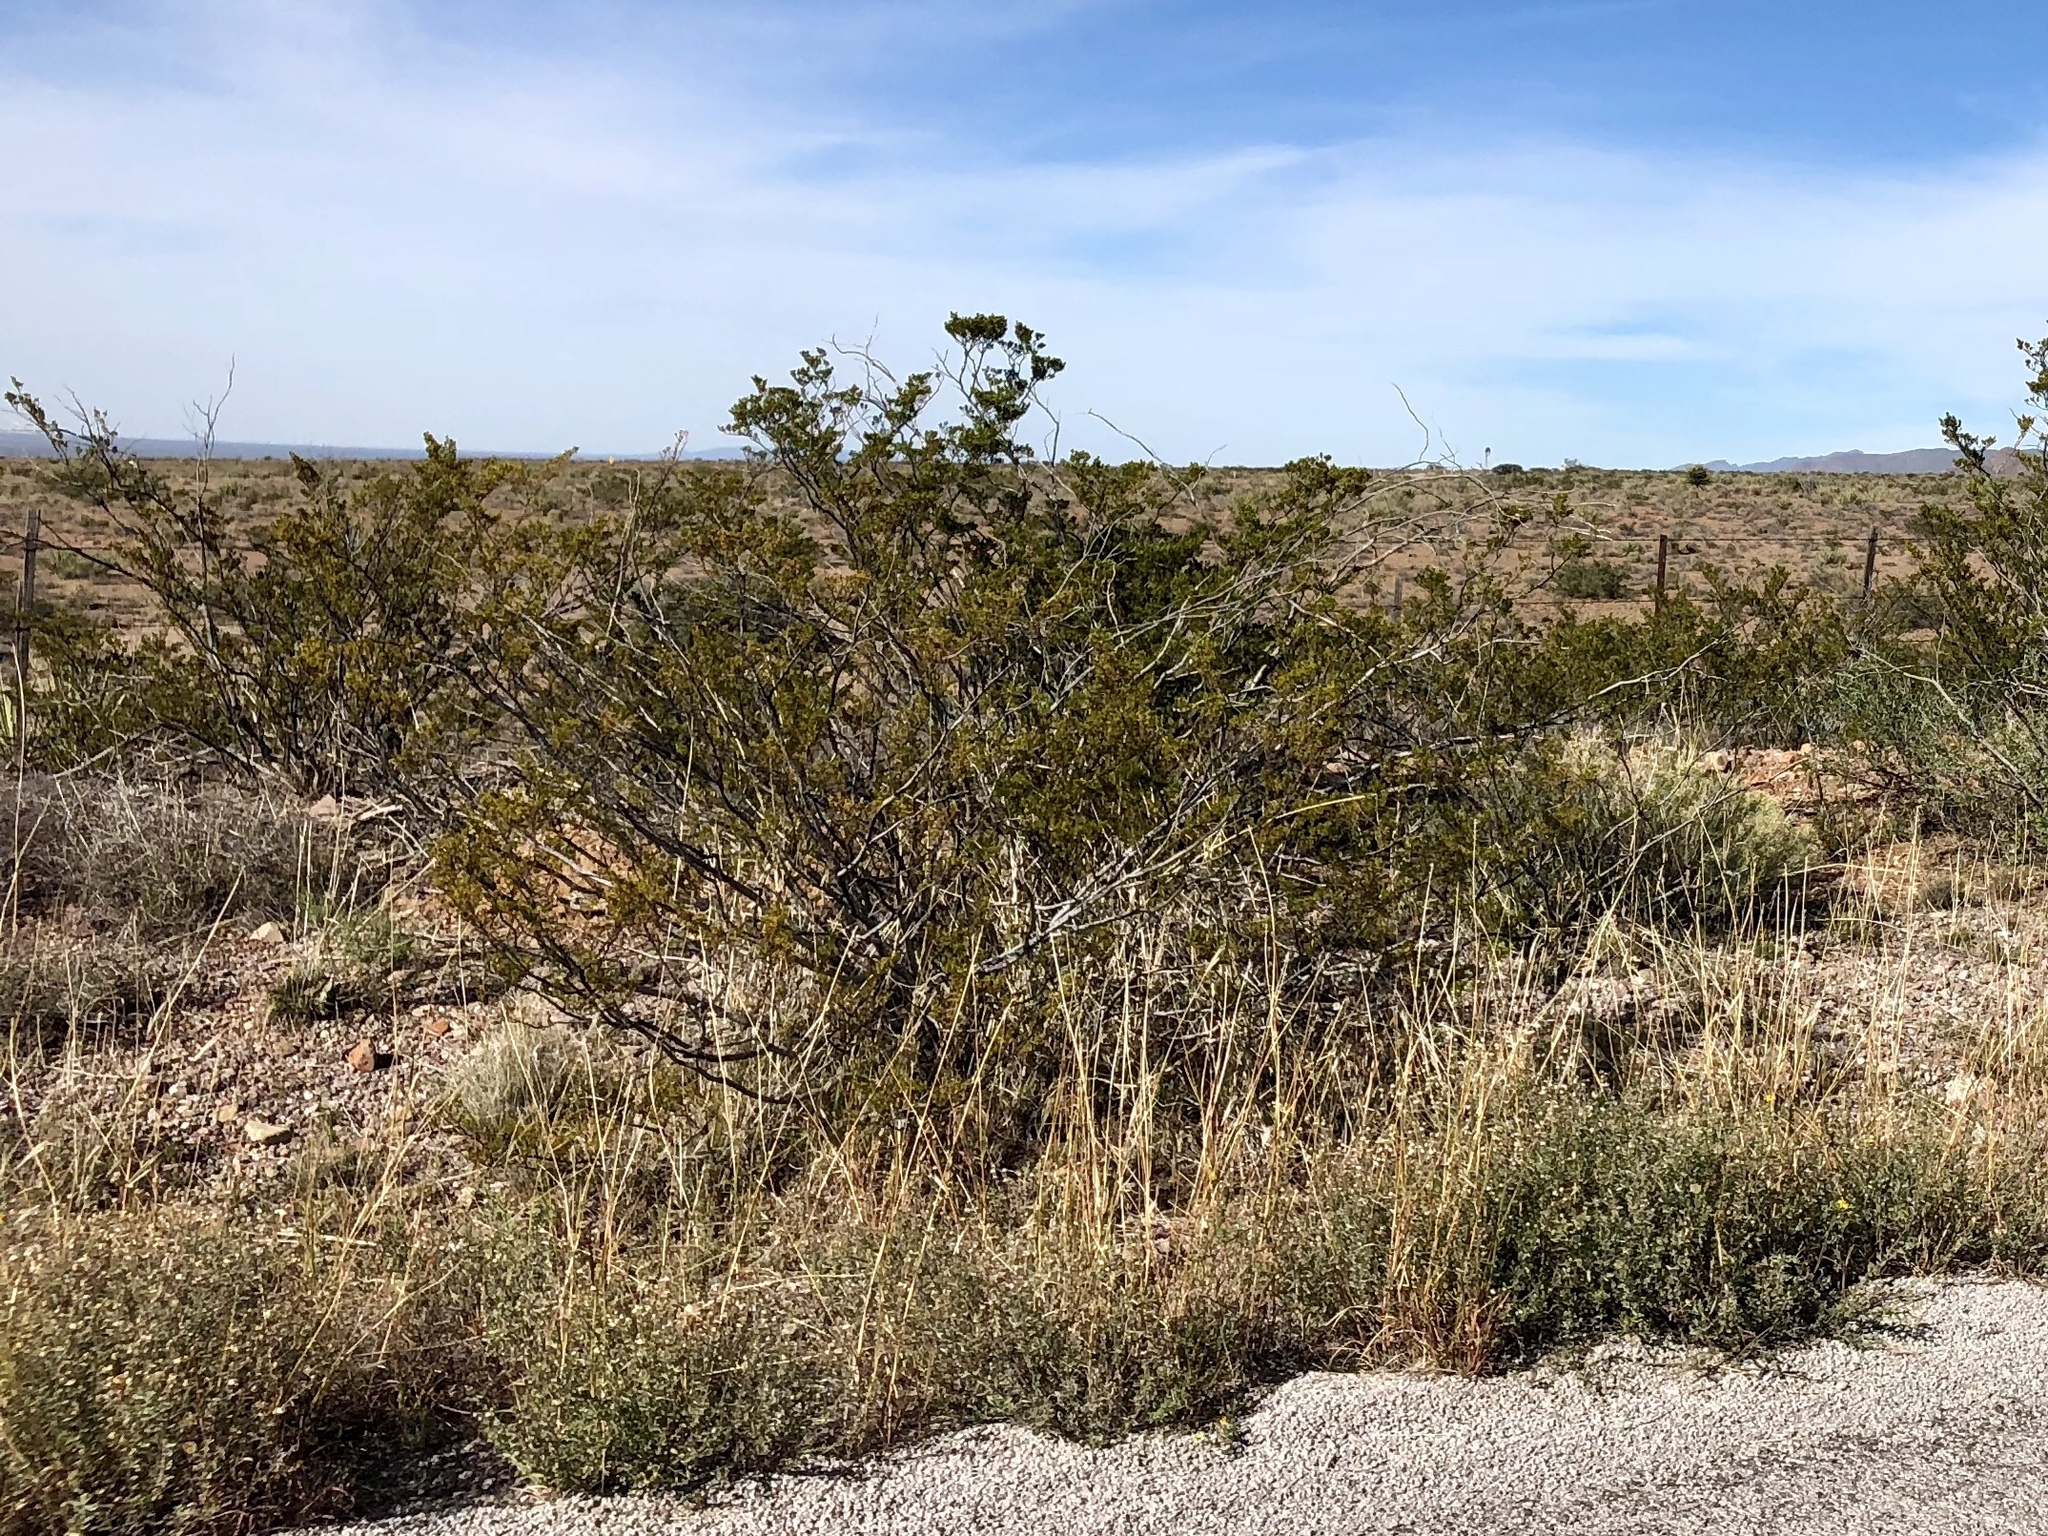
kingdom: Plantae
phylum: Tracheophyta
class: Magnoliopsida
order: Zygophyllales
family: Zygophyllaceae
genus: Larrea
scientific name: Larrea tridentata
